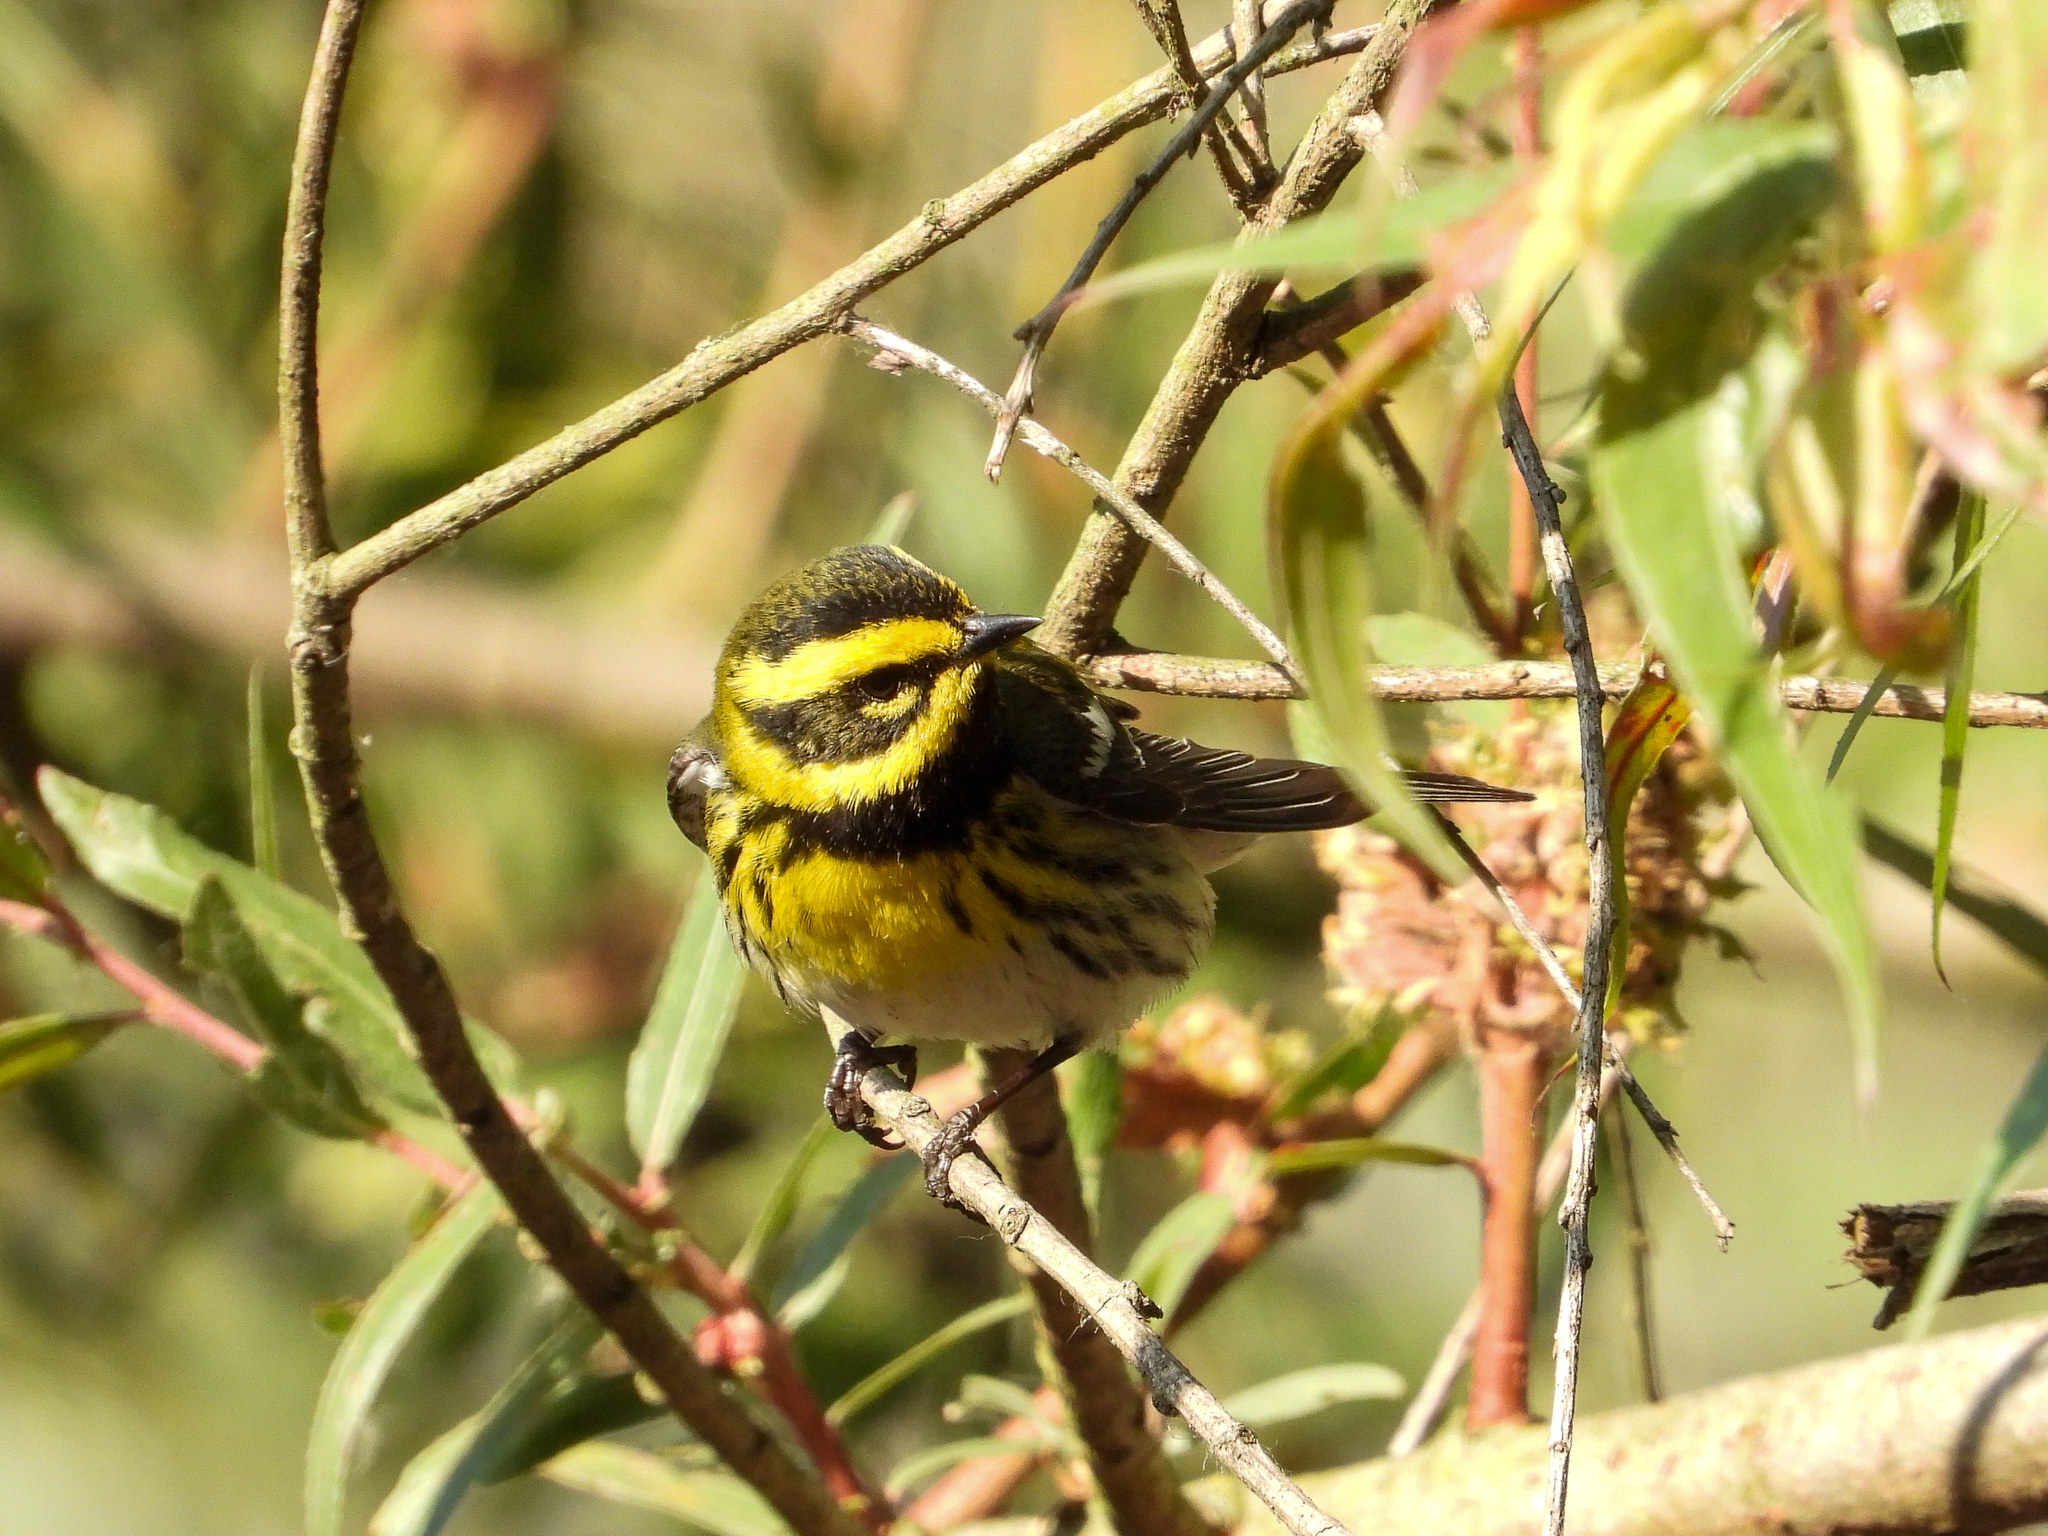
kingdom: Animalia
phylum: Chordata
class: Aves
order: Passeriformes
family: Parulidae
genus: Setophaga
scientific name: Setophaga townsendi
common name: Townsend's warbler
